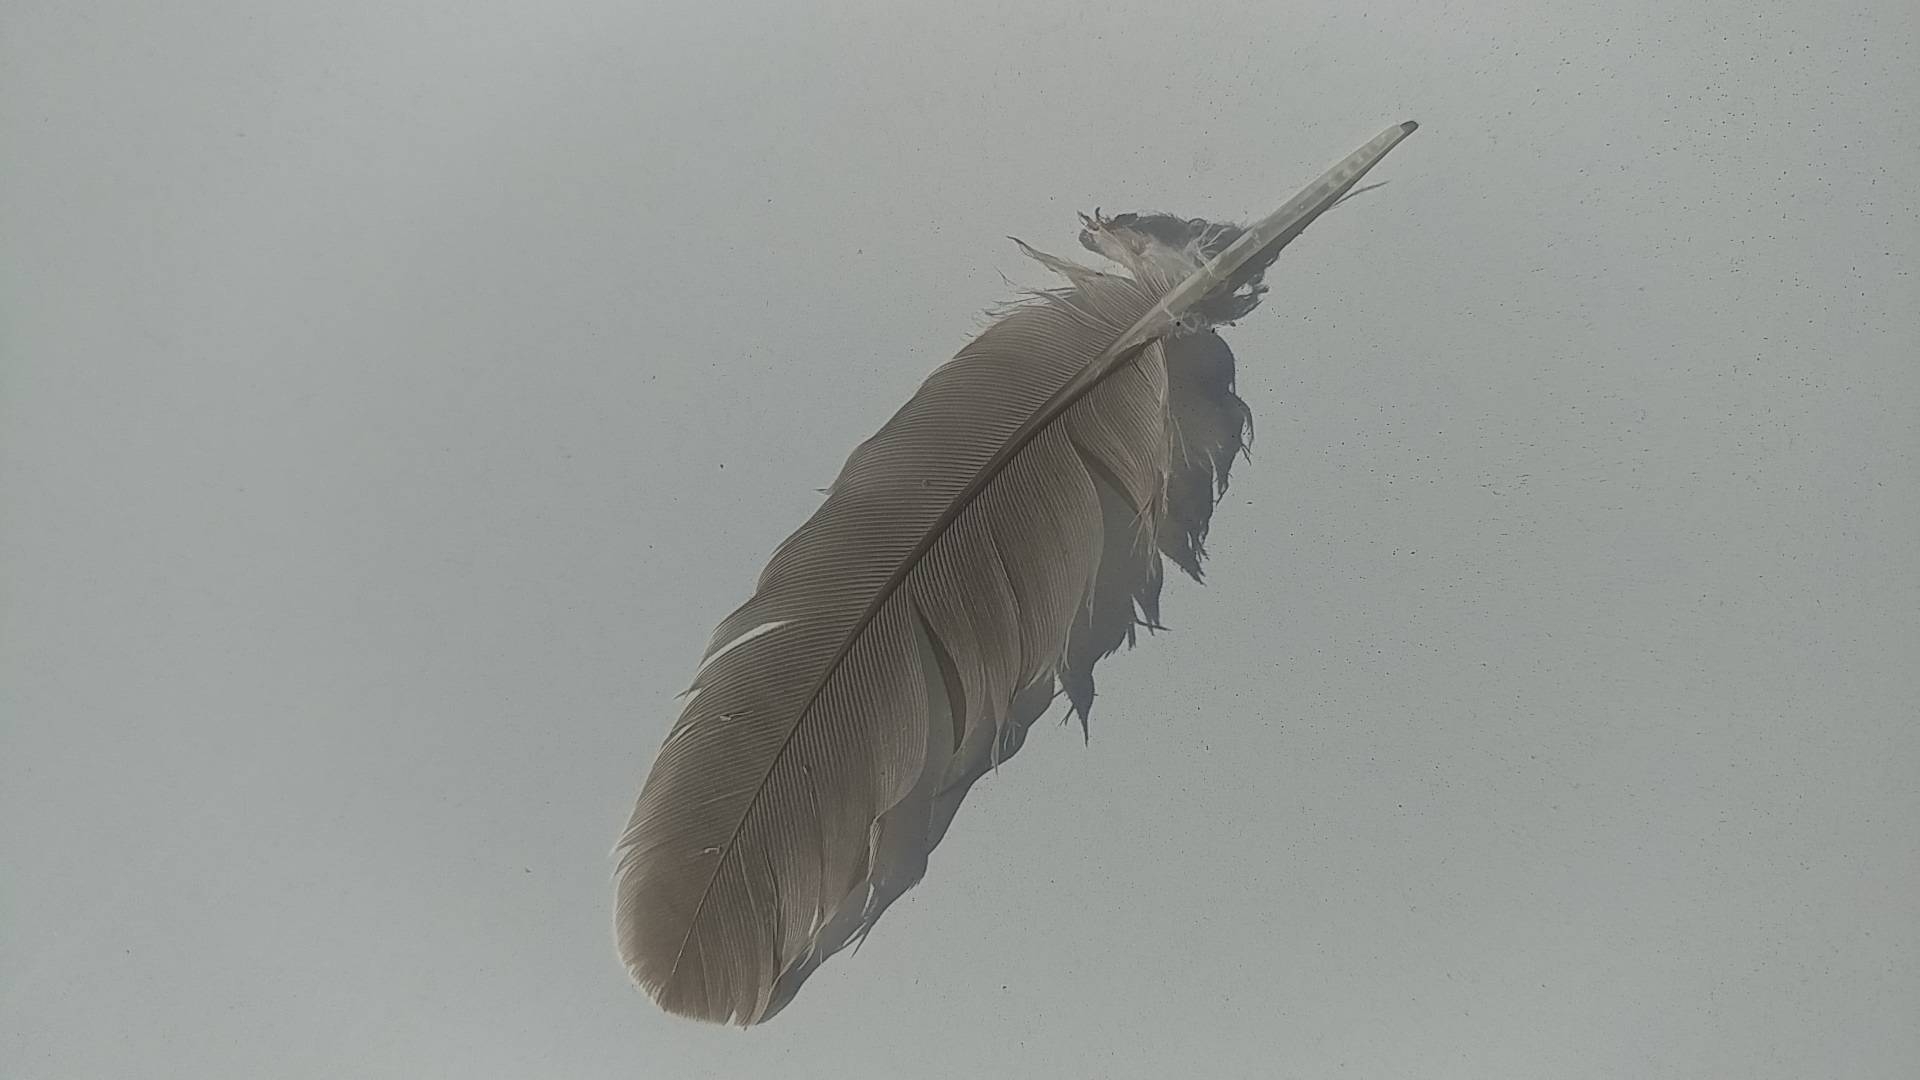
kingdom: Animalia
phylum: Chordata
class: Aves
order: Columbiformes
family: Columbidae
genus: Zenaida
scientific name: Zenaida macroura
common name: Mourning dove
